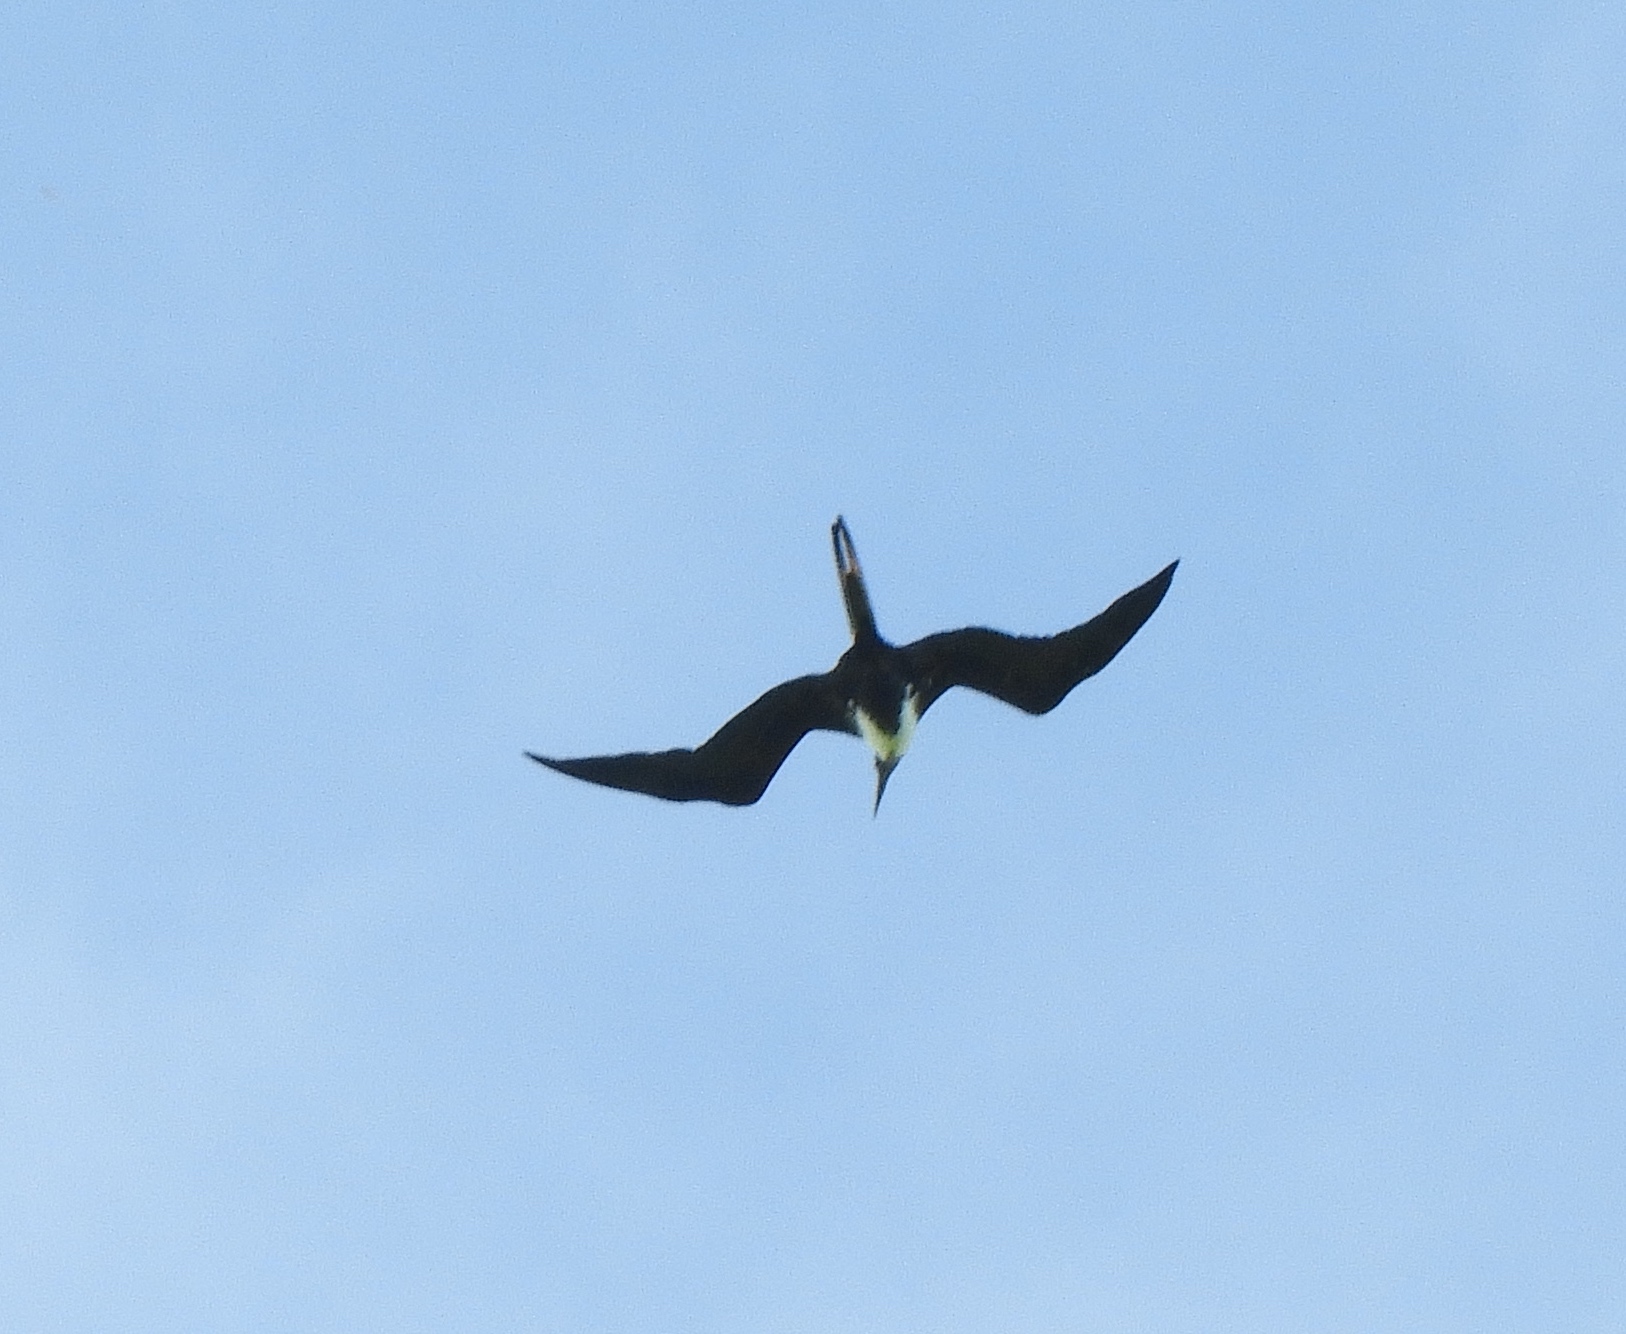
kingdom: Animalia
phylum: Chordata
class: Aves
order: Suliformes
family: Fregatidae
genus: Fregata
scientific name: Fregata magnificens
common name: Magnificent frigatebird
